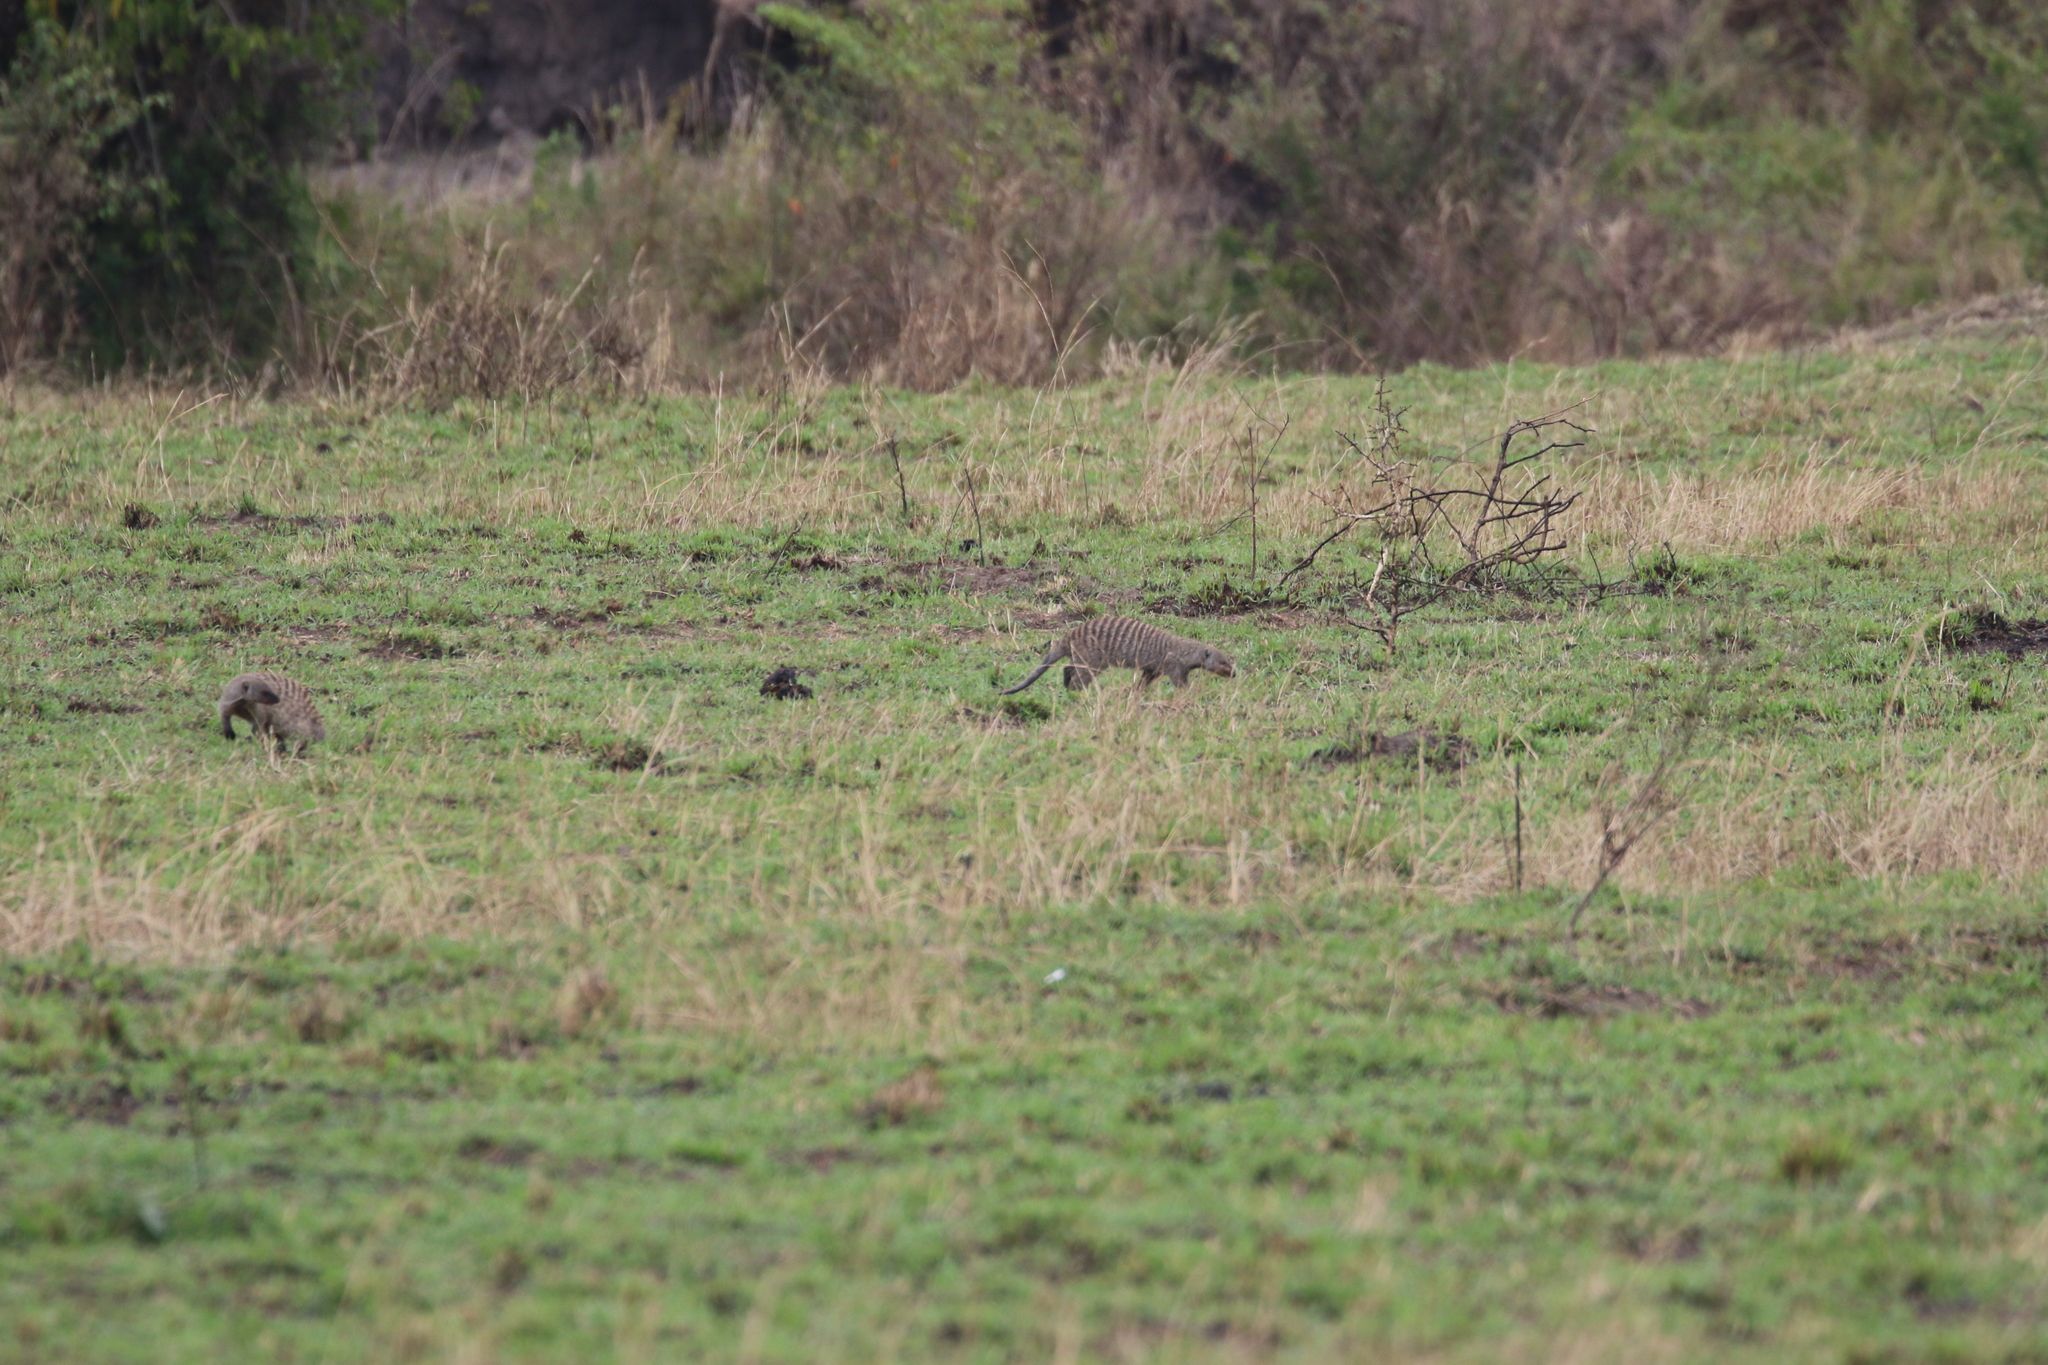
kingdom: Animalia
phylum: Chordata
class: Mammalia
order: Carnivora
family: Herpestidae
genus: Mungos
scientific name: Mungos mungo
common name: Banded mongoose
